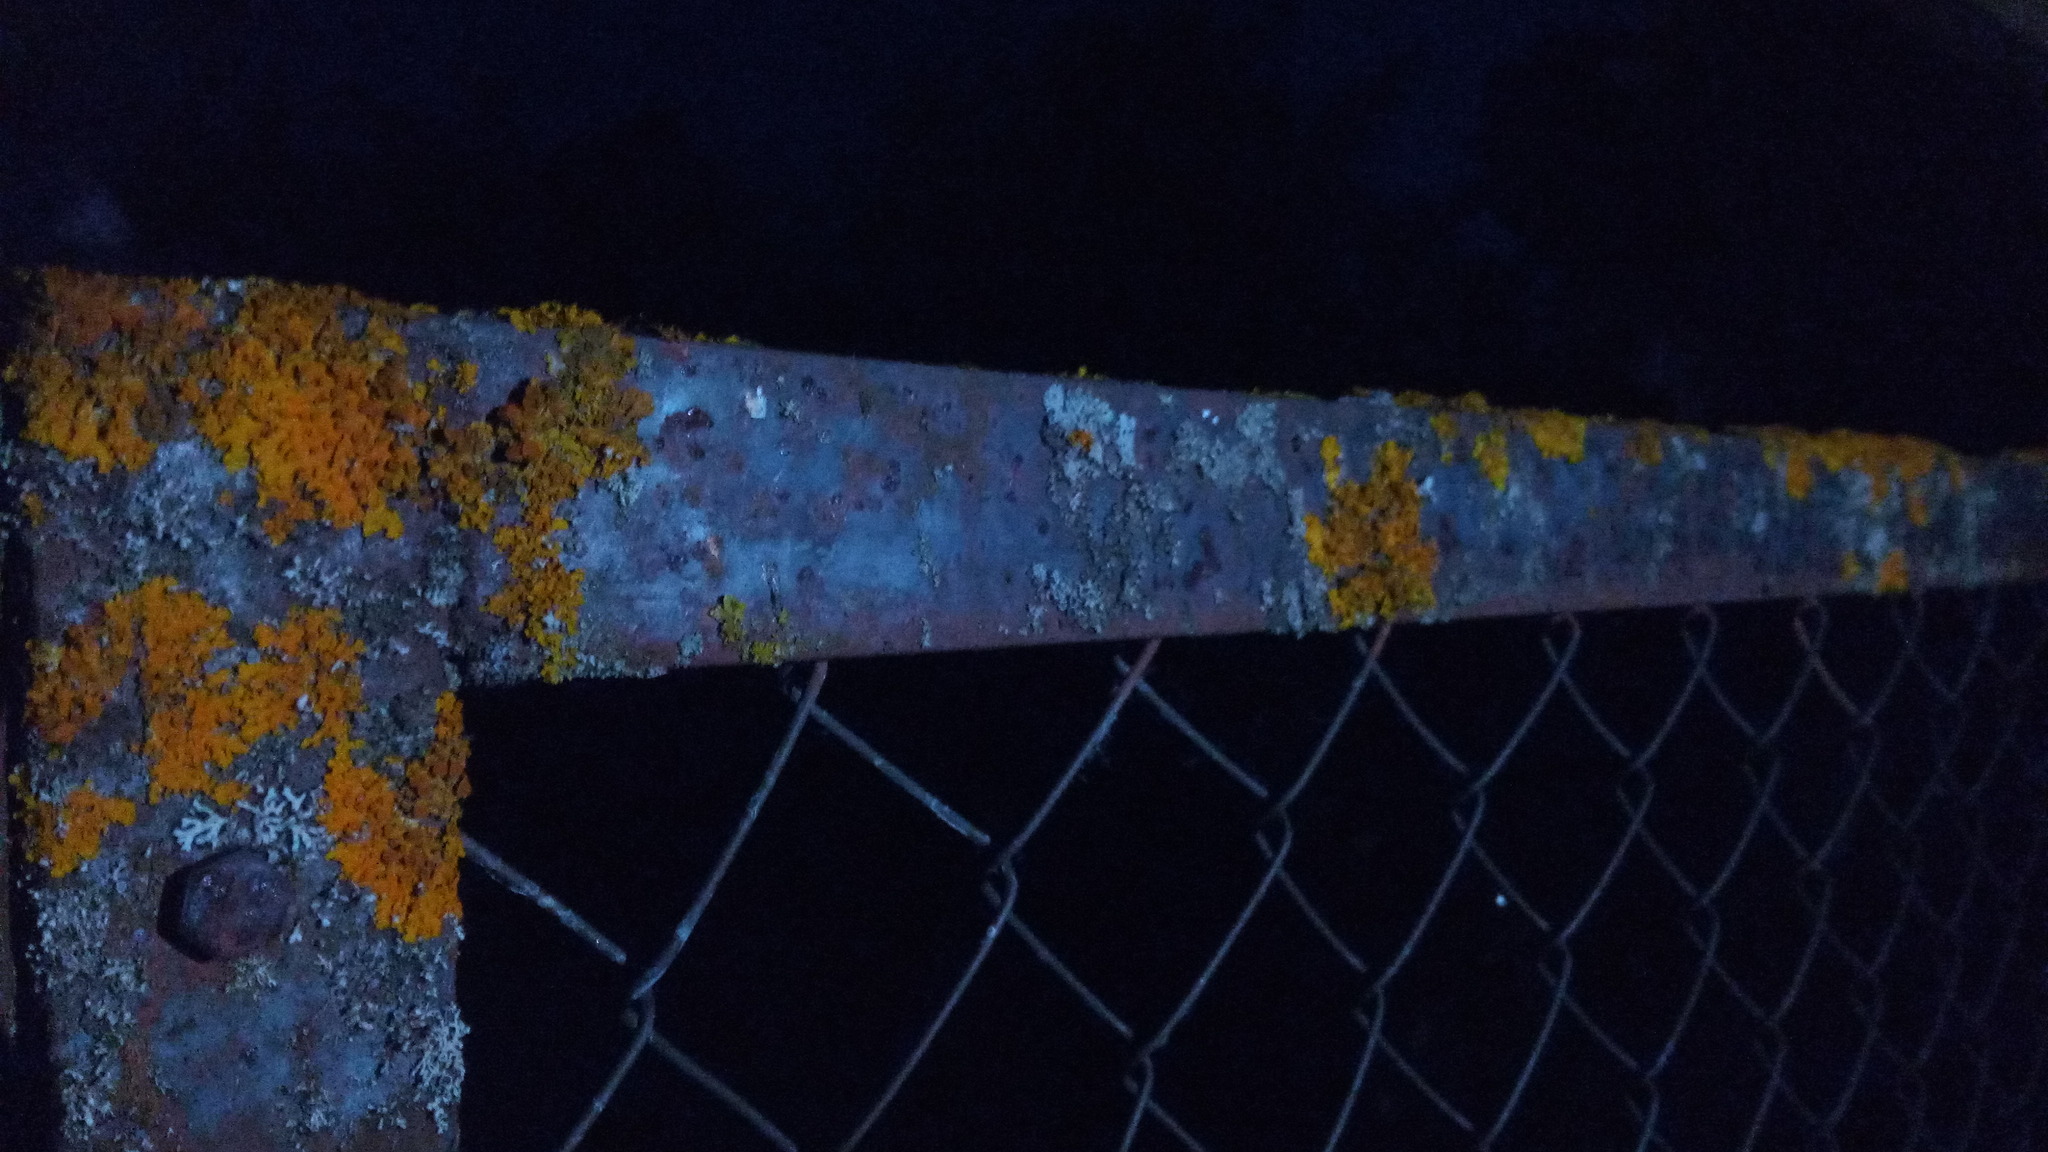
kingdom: Fungi
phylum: Ascomycota
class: Lecanoromycetes
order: Teloschistales
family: Teloschistaceae
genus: Xanthoria
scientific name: Xanthoria parietina
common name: Common orange lichen
